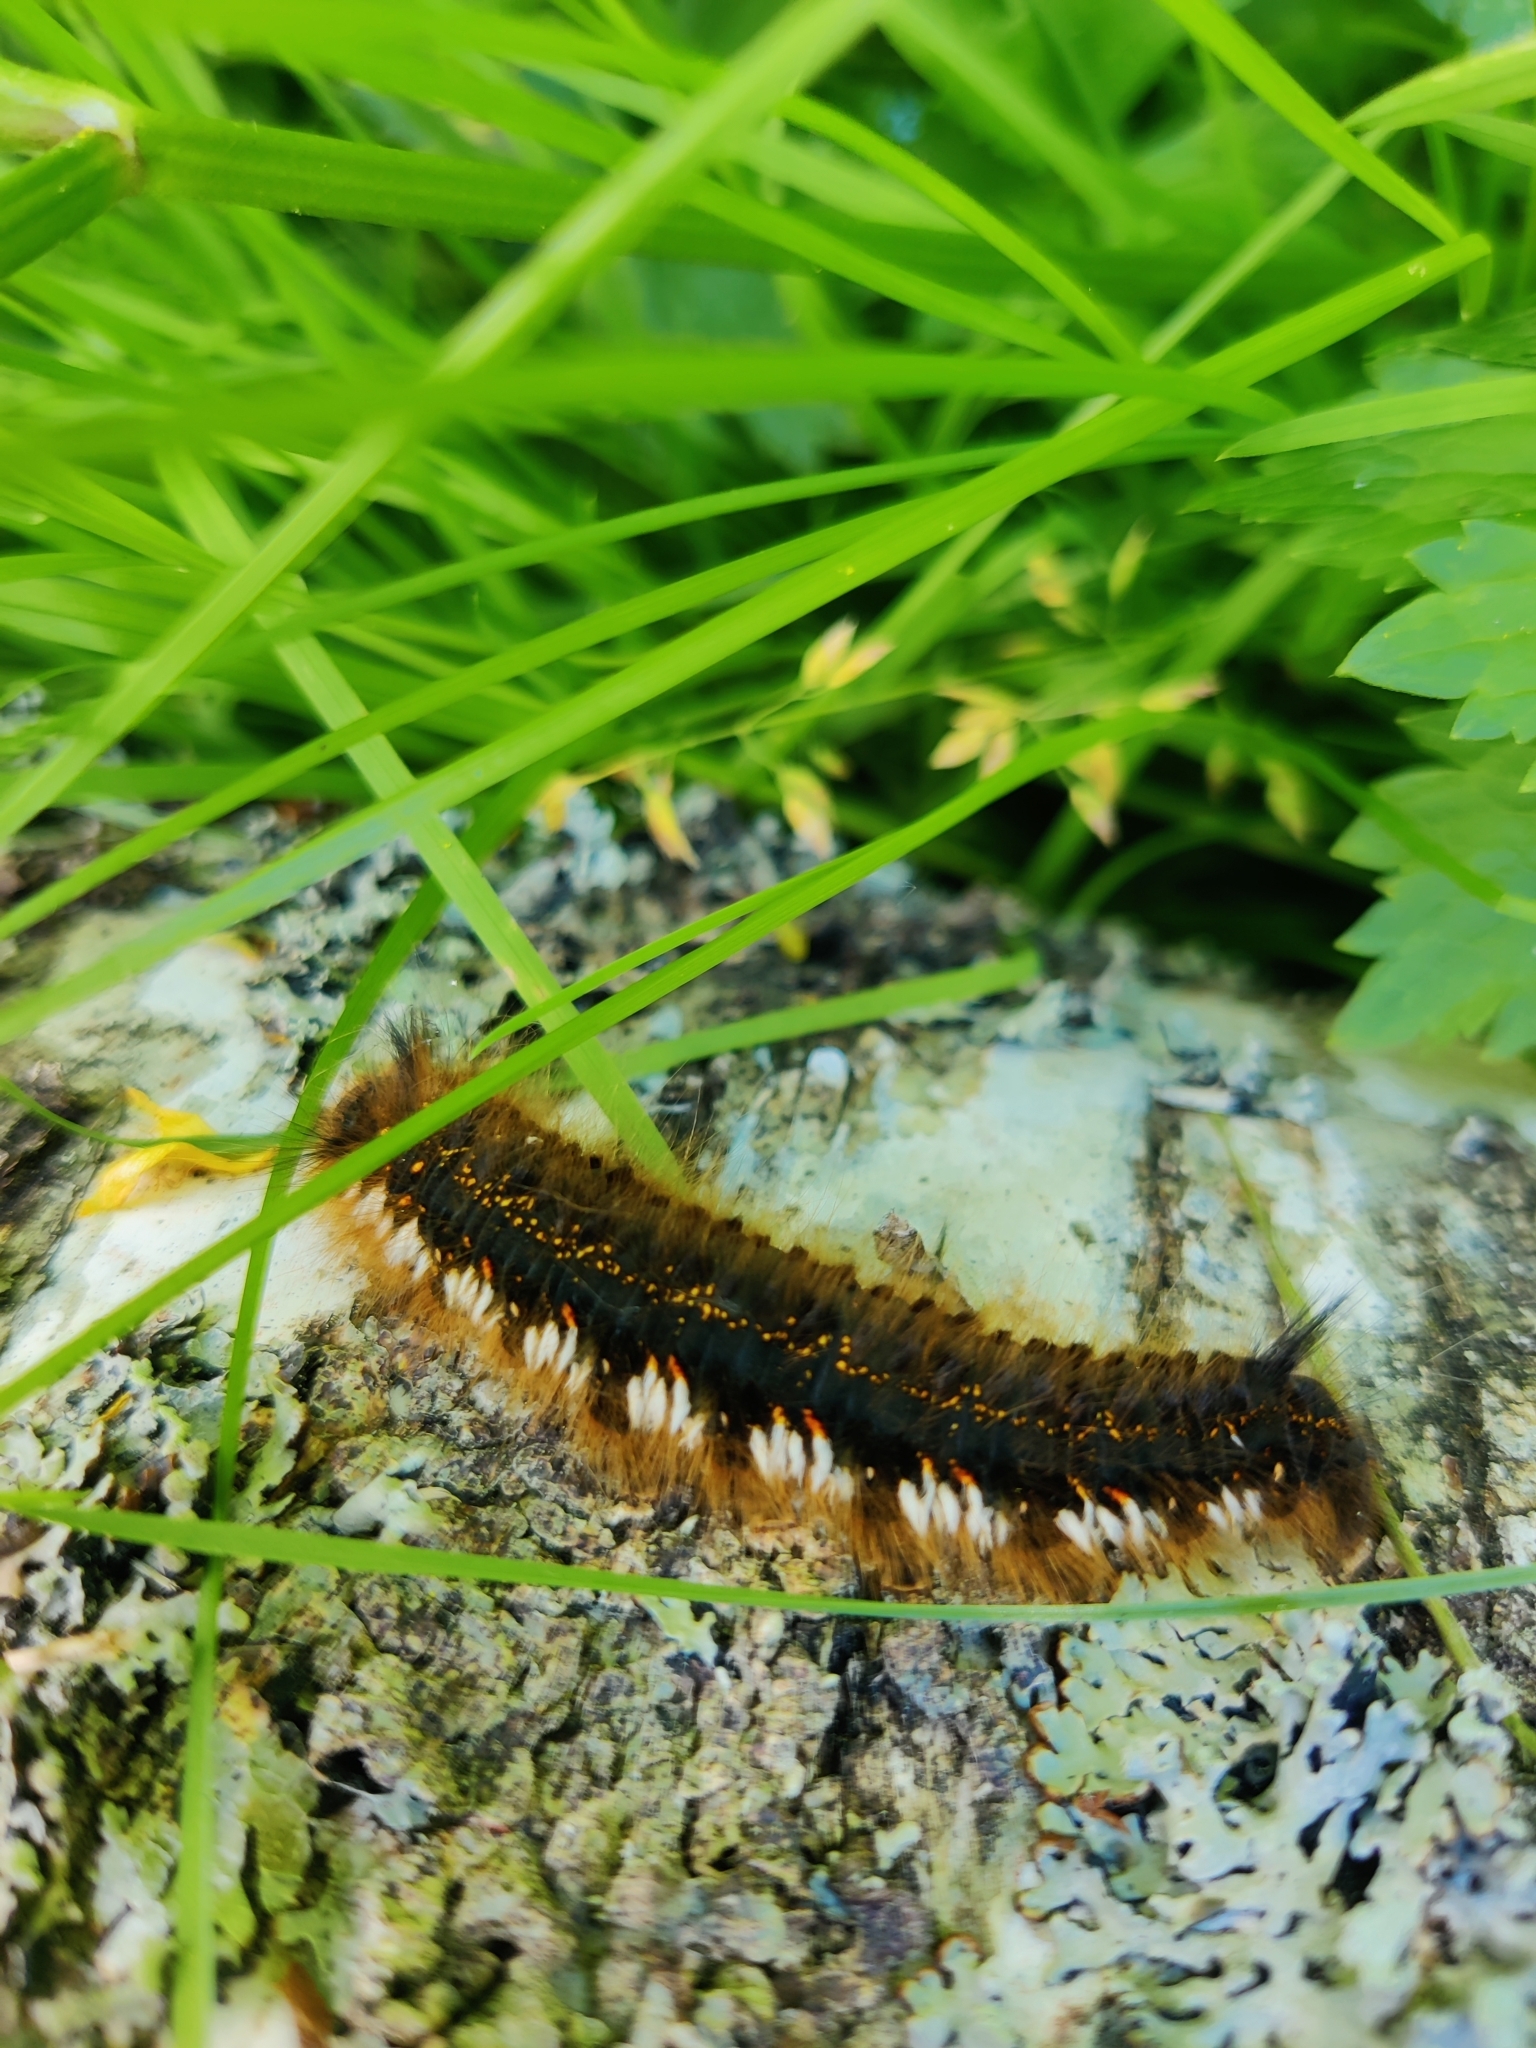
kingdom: Animalia
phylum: Arthropoda
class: Insecta
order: Lepidoptera
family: Lasiocampidae
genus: Euthrix
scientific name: Euthrix potatoria
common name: Drinker
